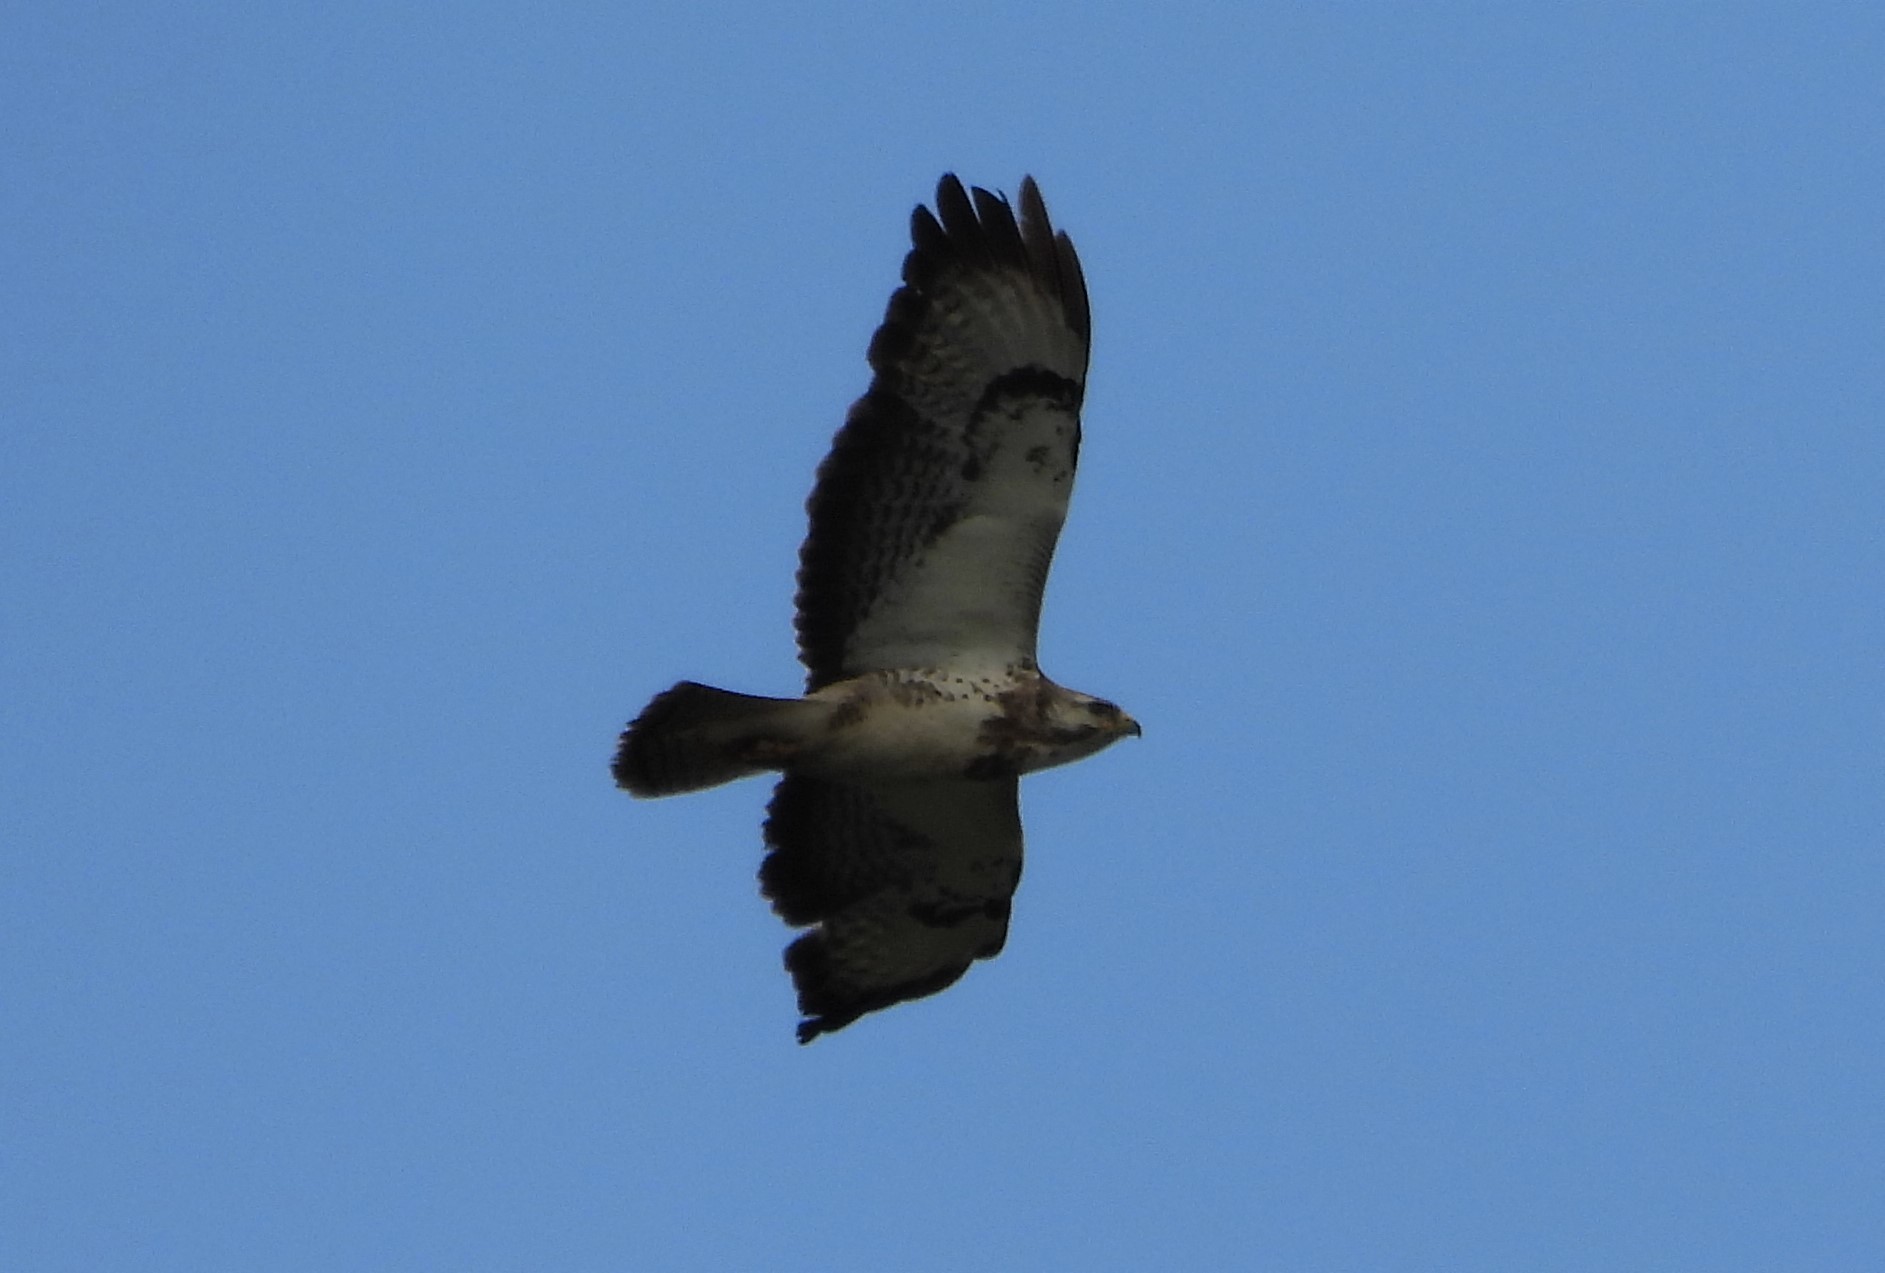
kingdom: Animalia
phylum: Chordata
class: Aves
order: Accipitriformes
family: Accipitridae
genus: Buteo
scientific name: Buteo buteo
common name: Common buzzard
